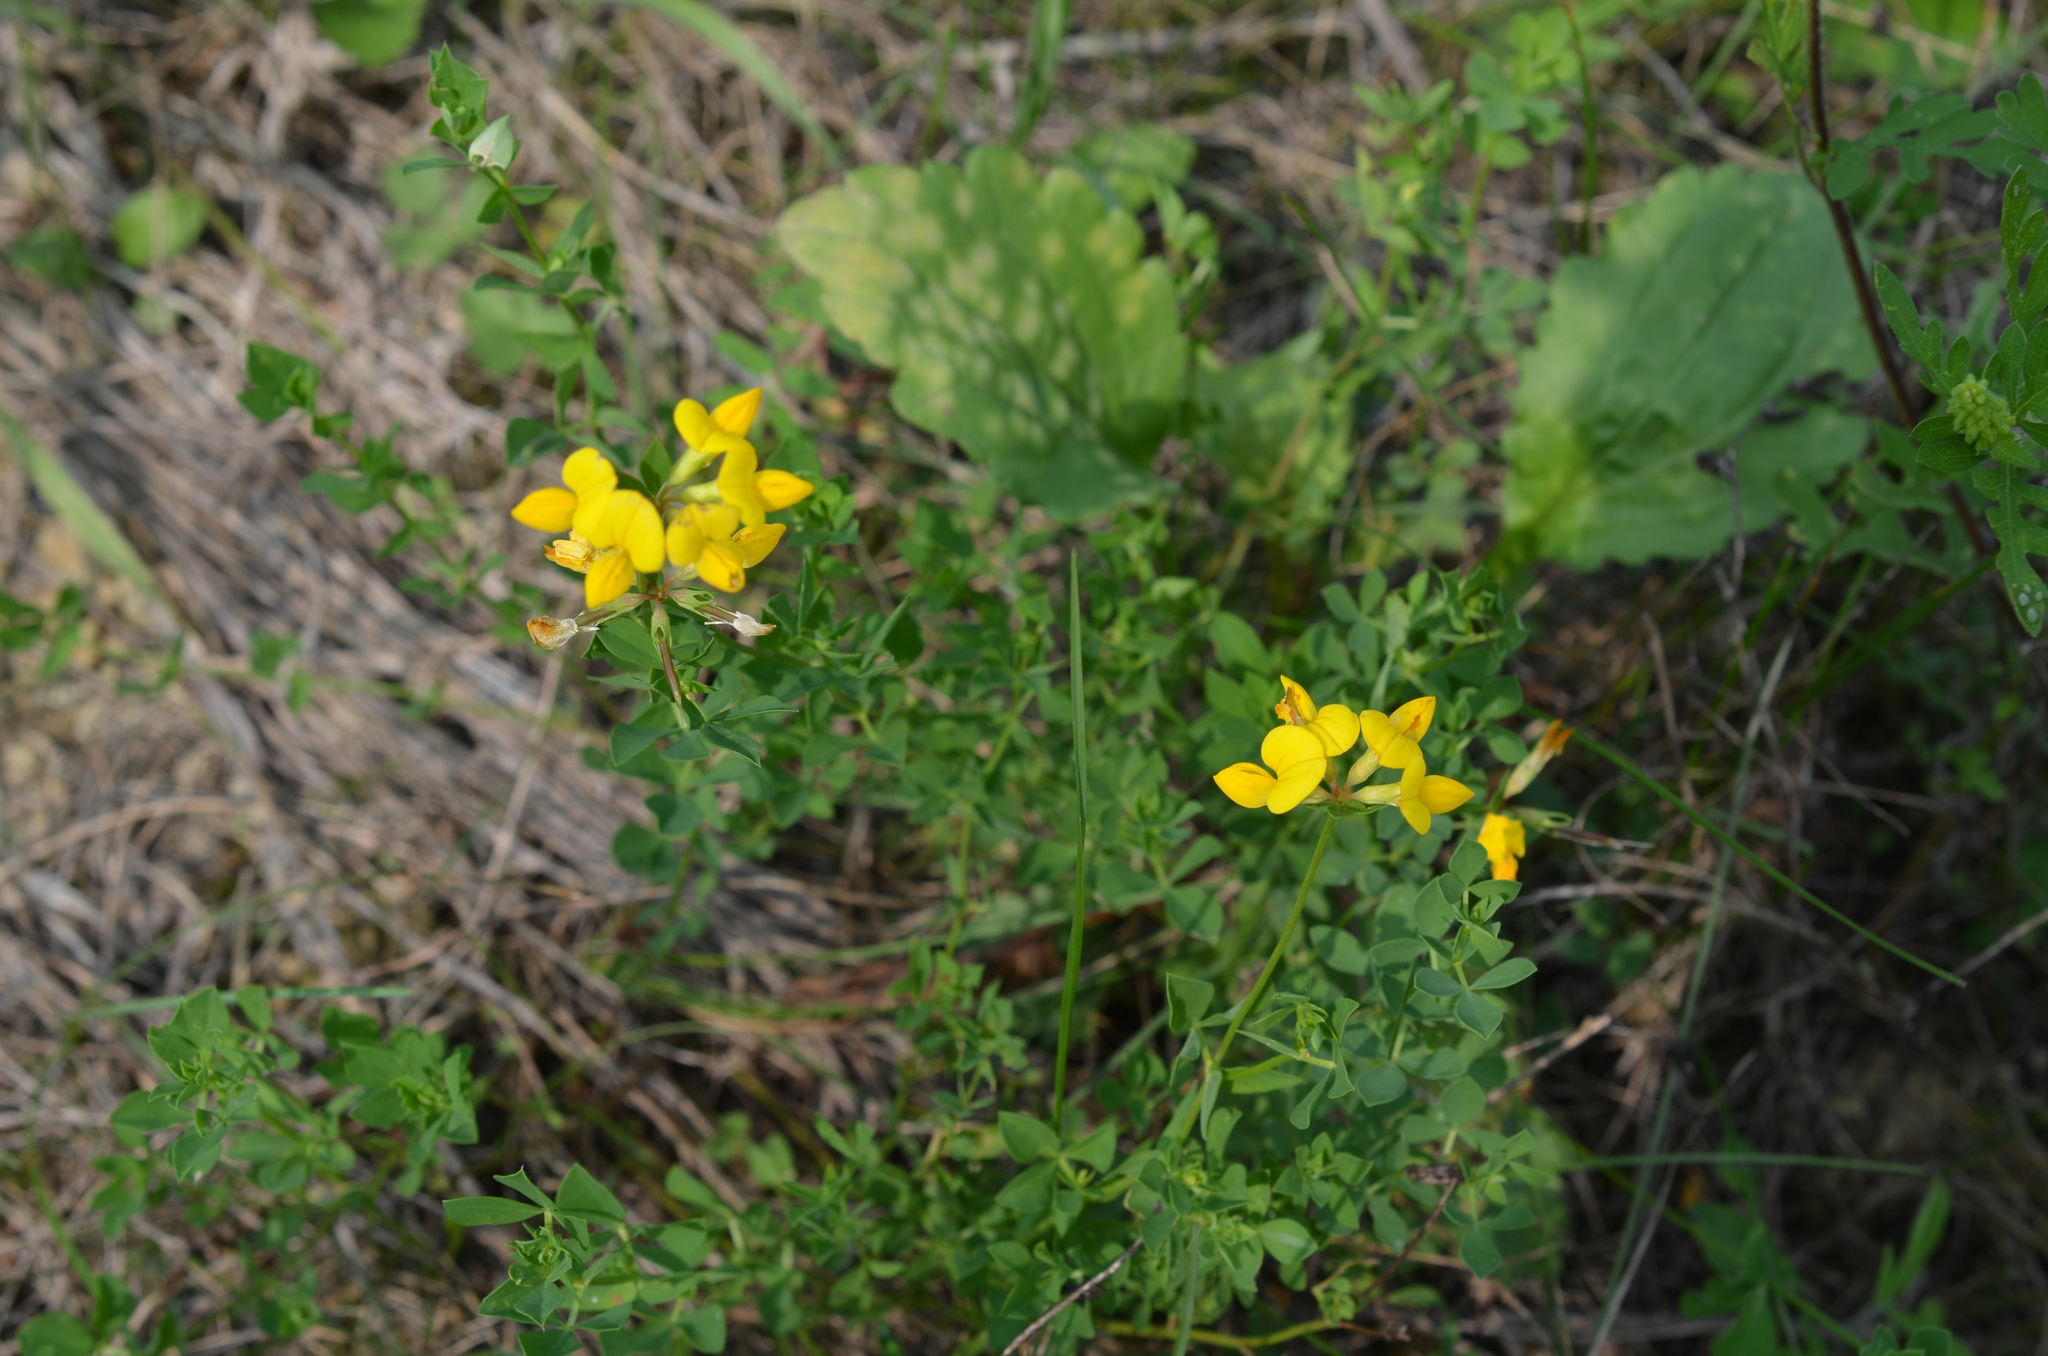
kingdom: Plantae
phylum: Tracheophyta
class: Magnoliopsida
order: Fabales
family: Fabaceae
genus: Lotus
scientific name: Lotus corniculatus
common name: Common bird's-foot-trefoil
